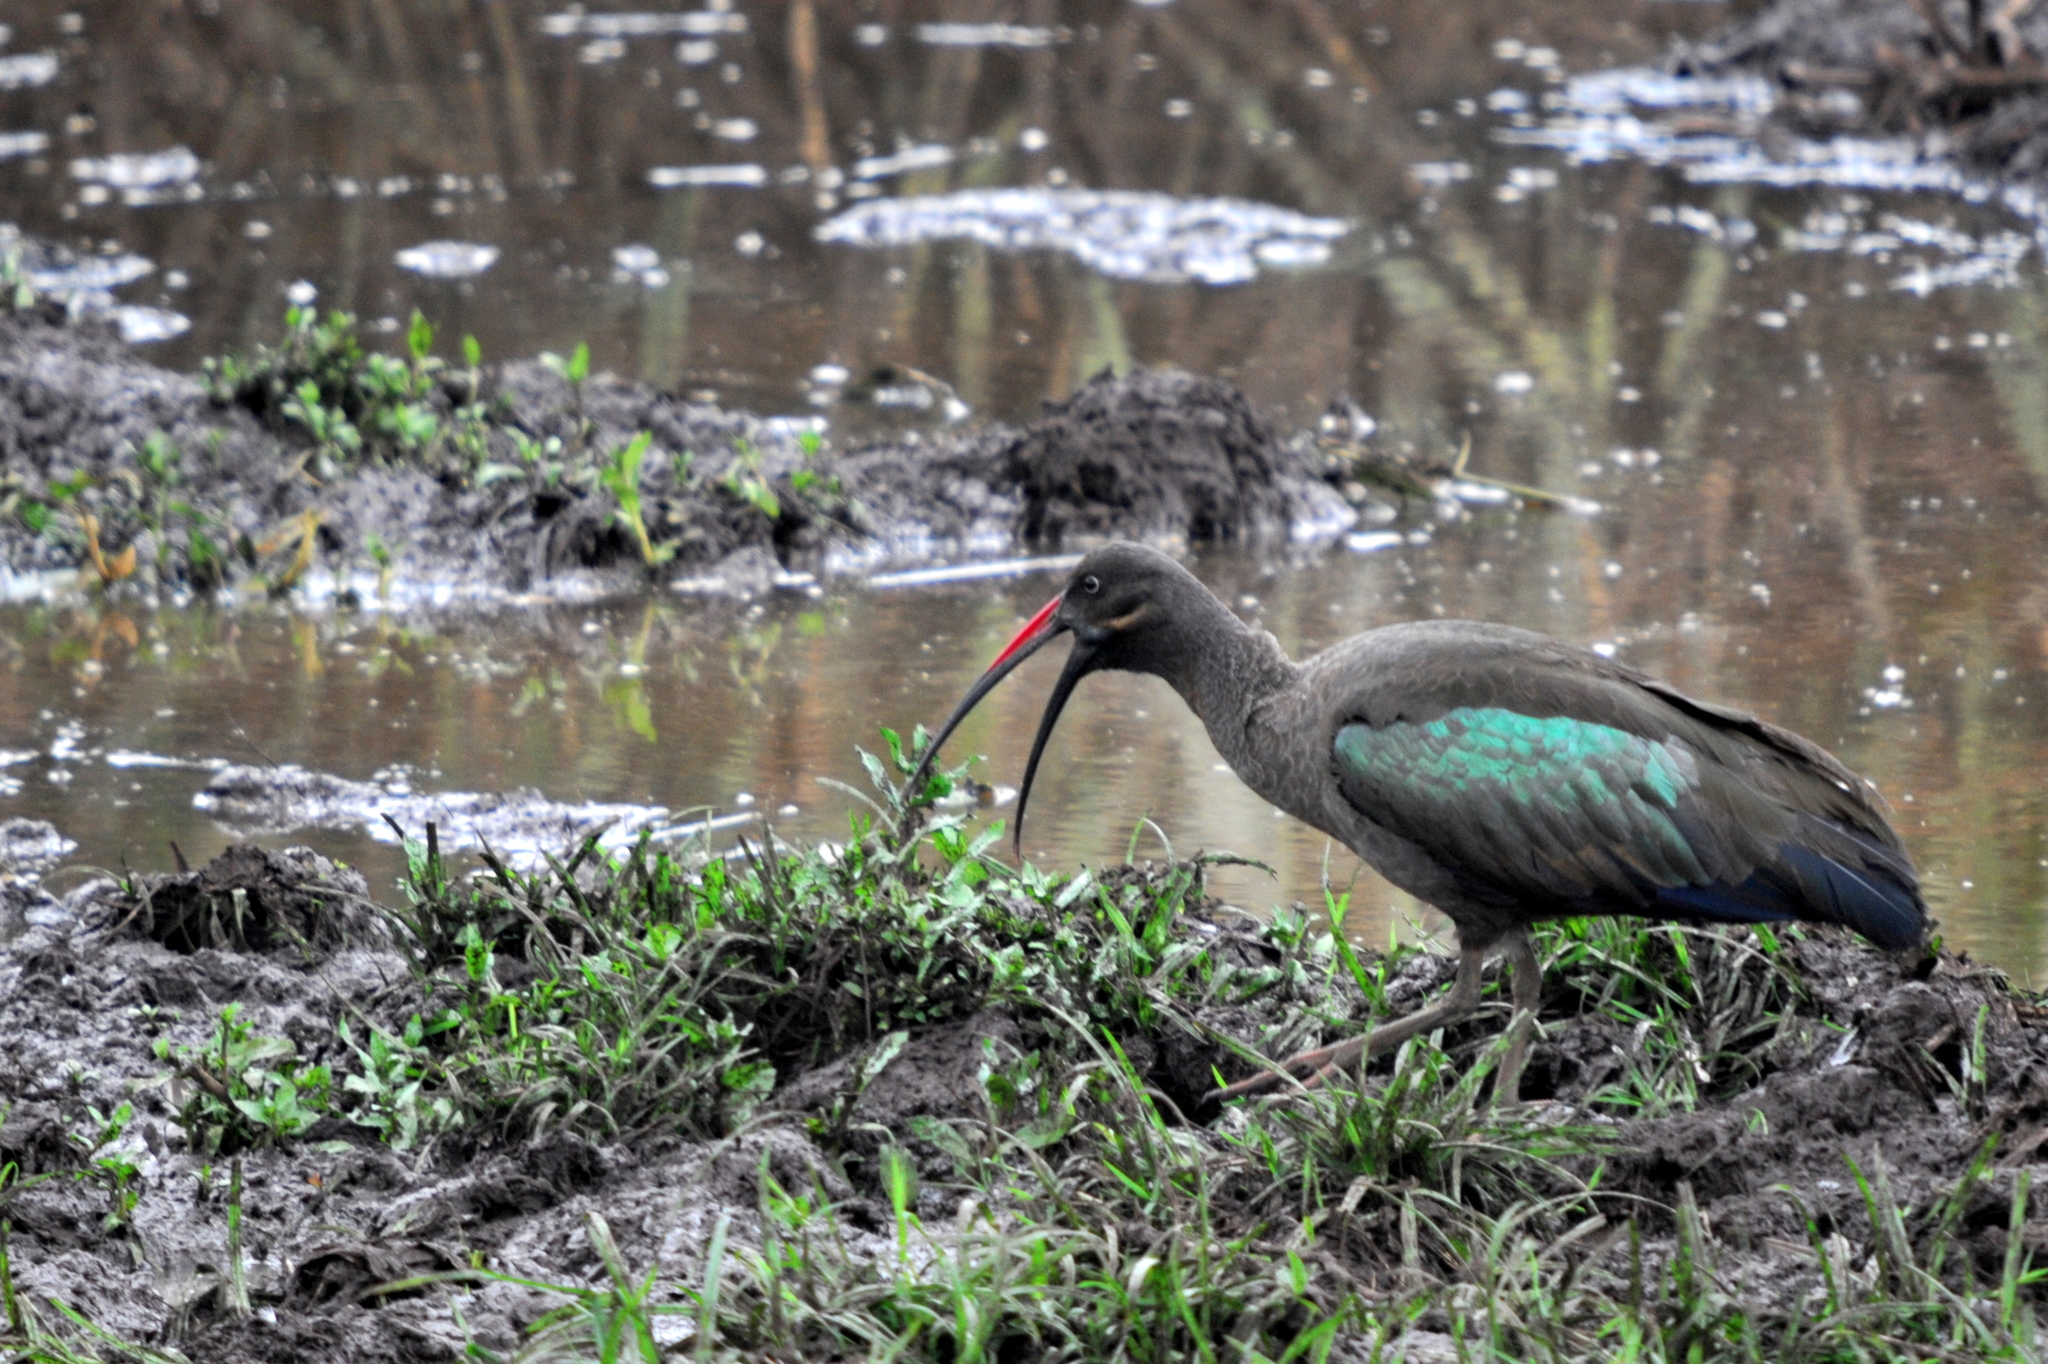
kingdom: Animalia
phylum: Chordata
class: Aves
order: Pelecaniformes
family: Threskiornithidae
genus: Bostrychia
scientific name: Bostrychia hagedash
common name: Hadada ibis
